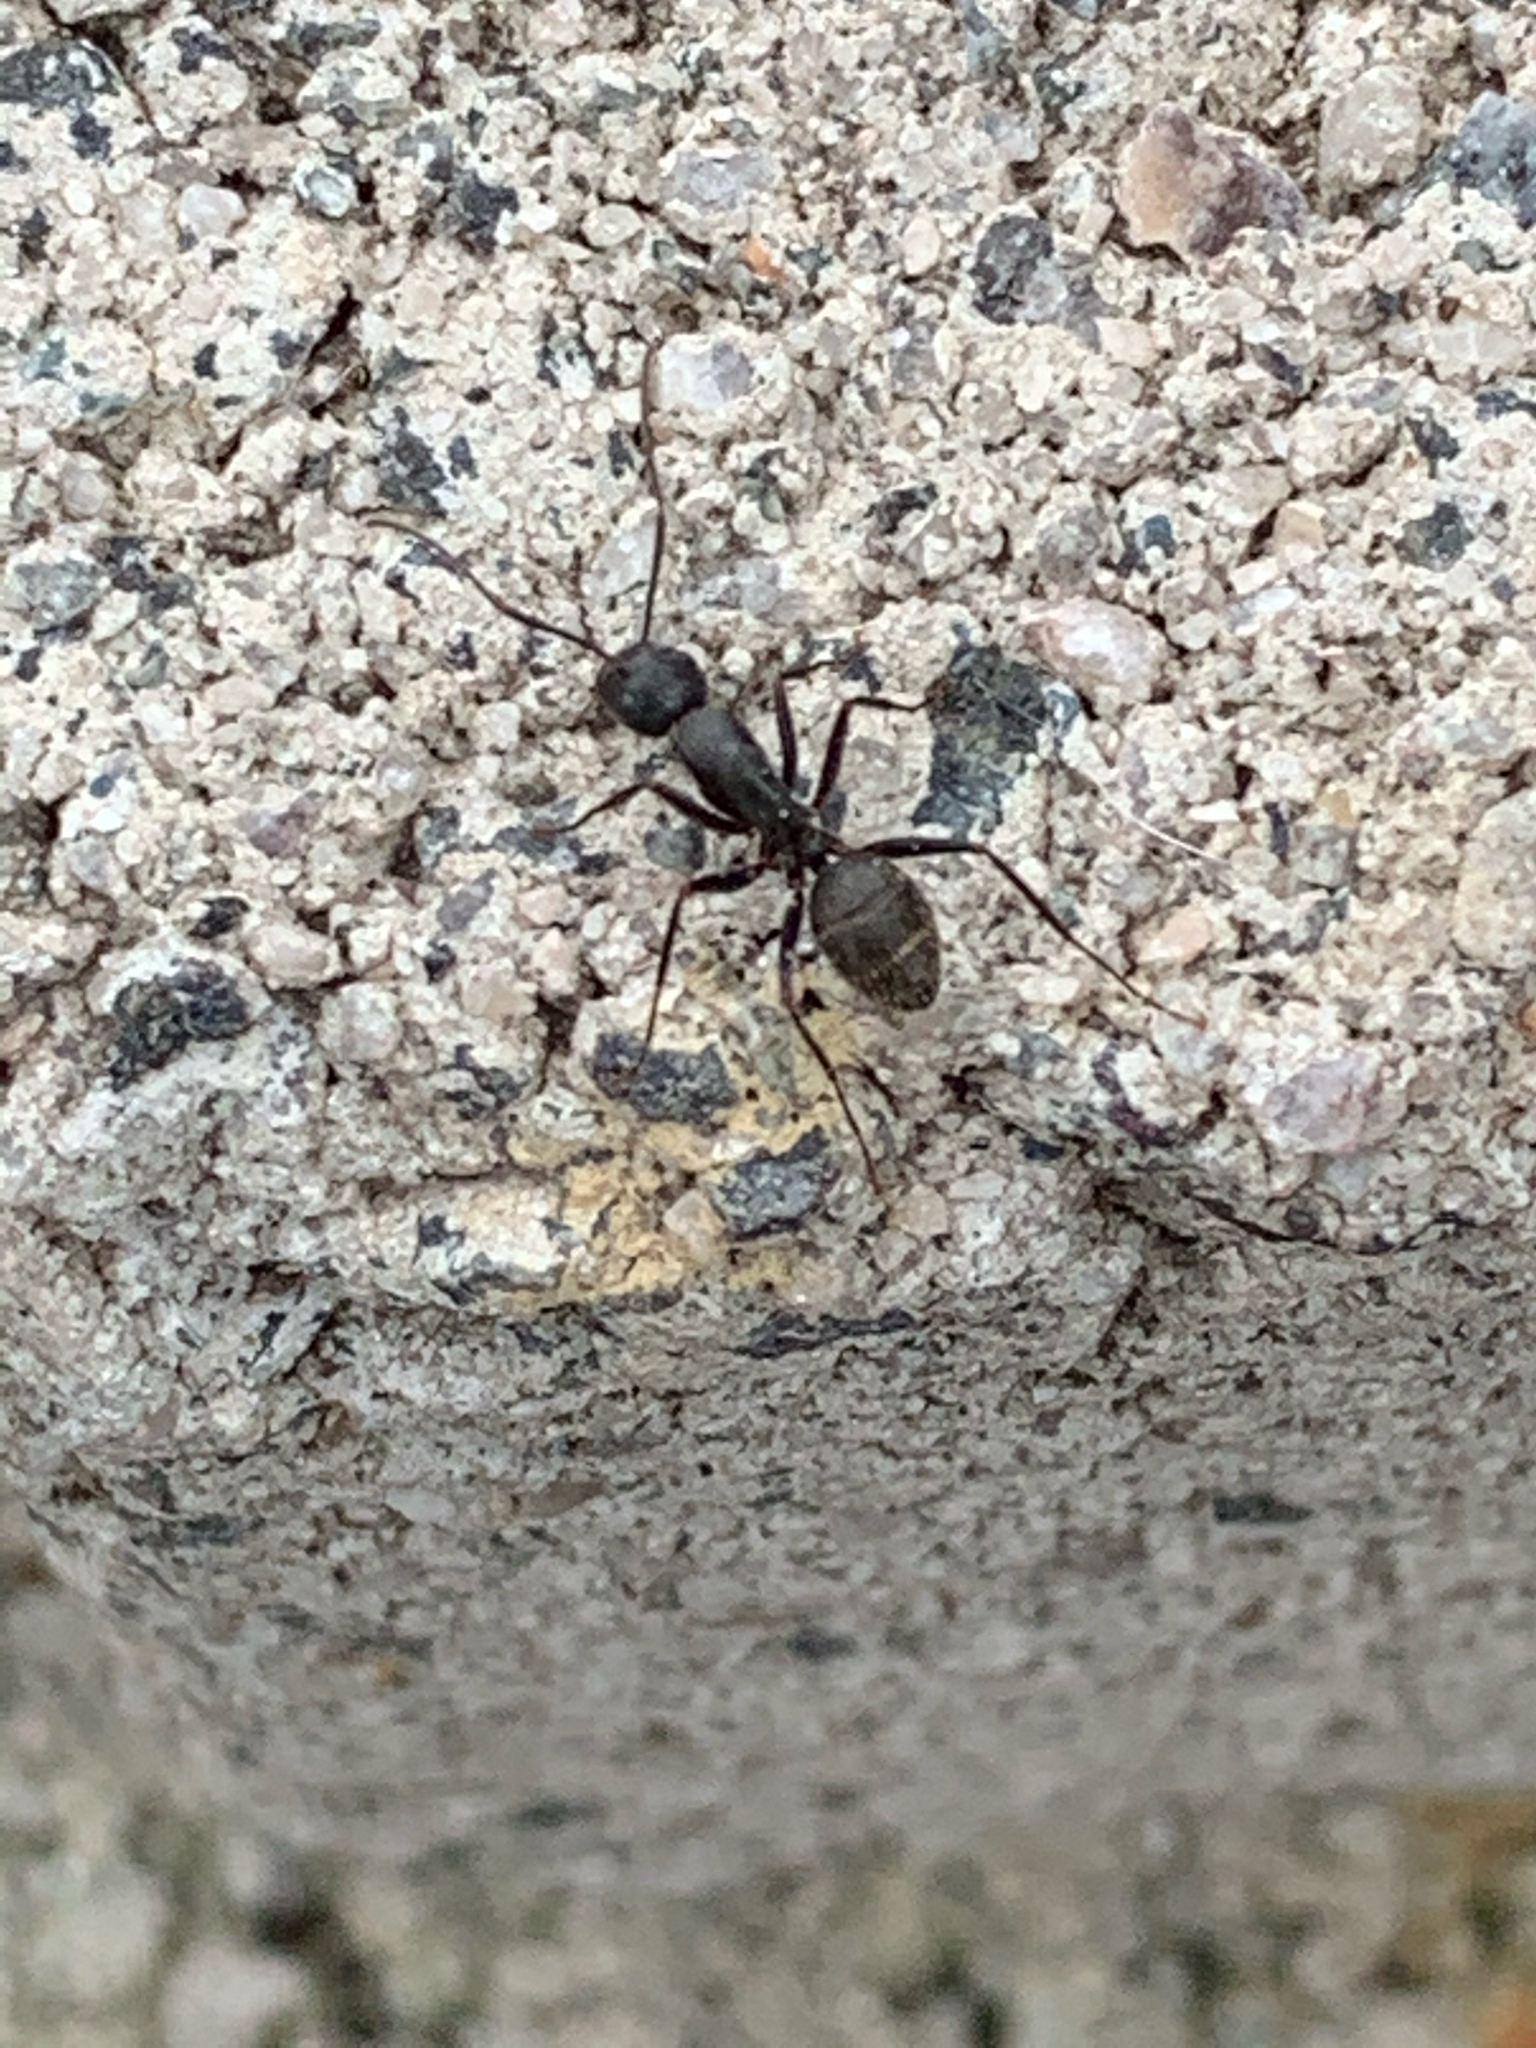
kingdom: Animalia
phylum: Arthropoda
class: Insecta
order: Hymenoptera
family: Formicidae
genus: Camponotus
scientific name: Camponotus pennsylvanicus
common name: Black carpenter ant
